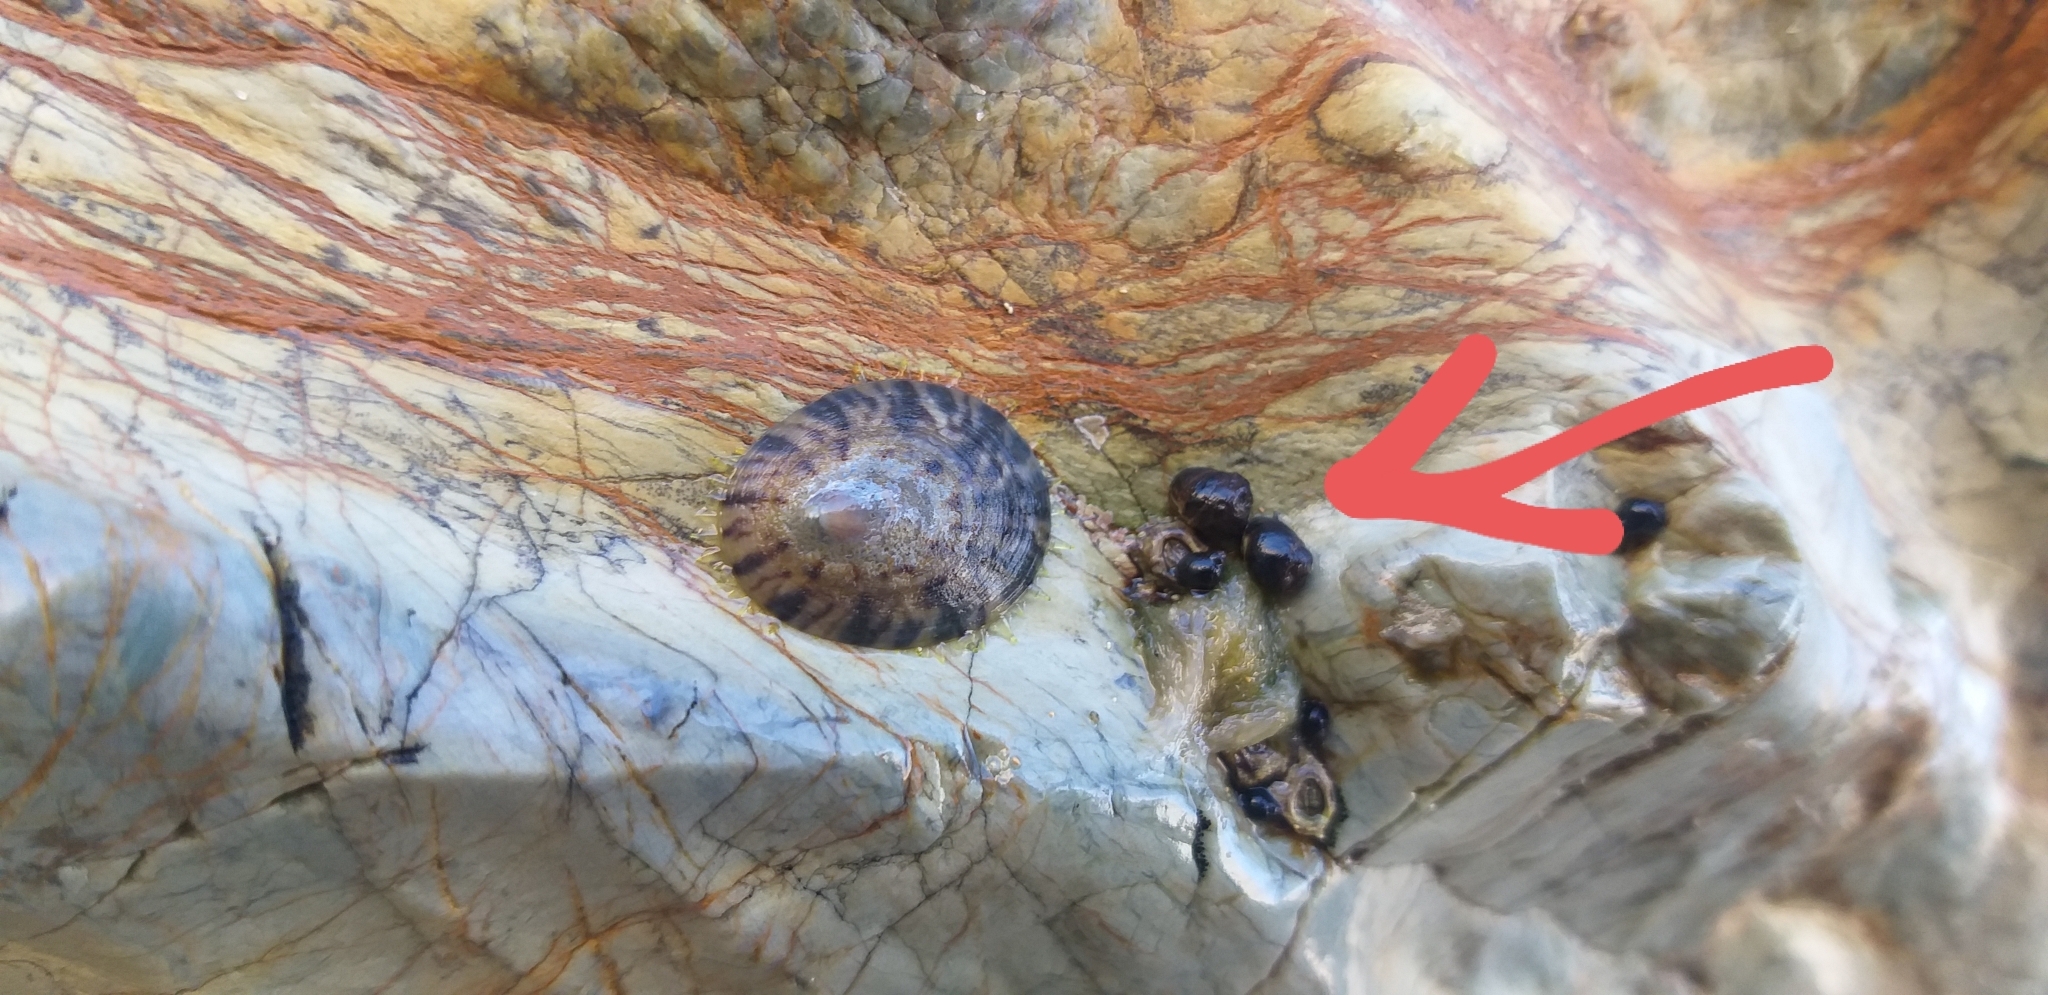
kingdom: Animalia
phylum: Mollusca
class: Gastropoda
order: Littorinimorpha
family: Littorinidae
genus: Austrolittorina
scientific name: Austrolittorina cincta
